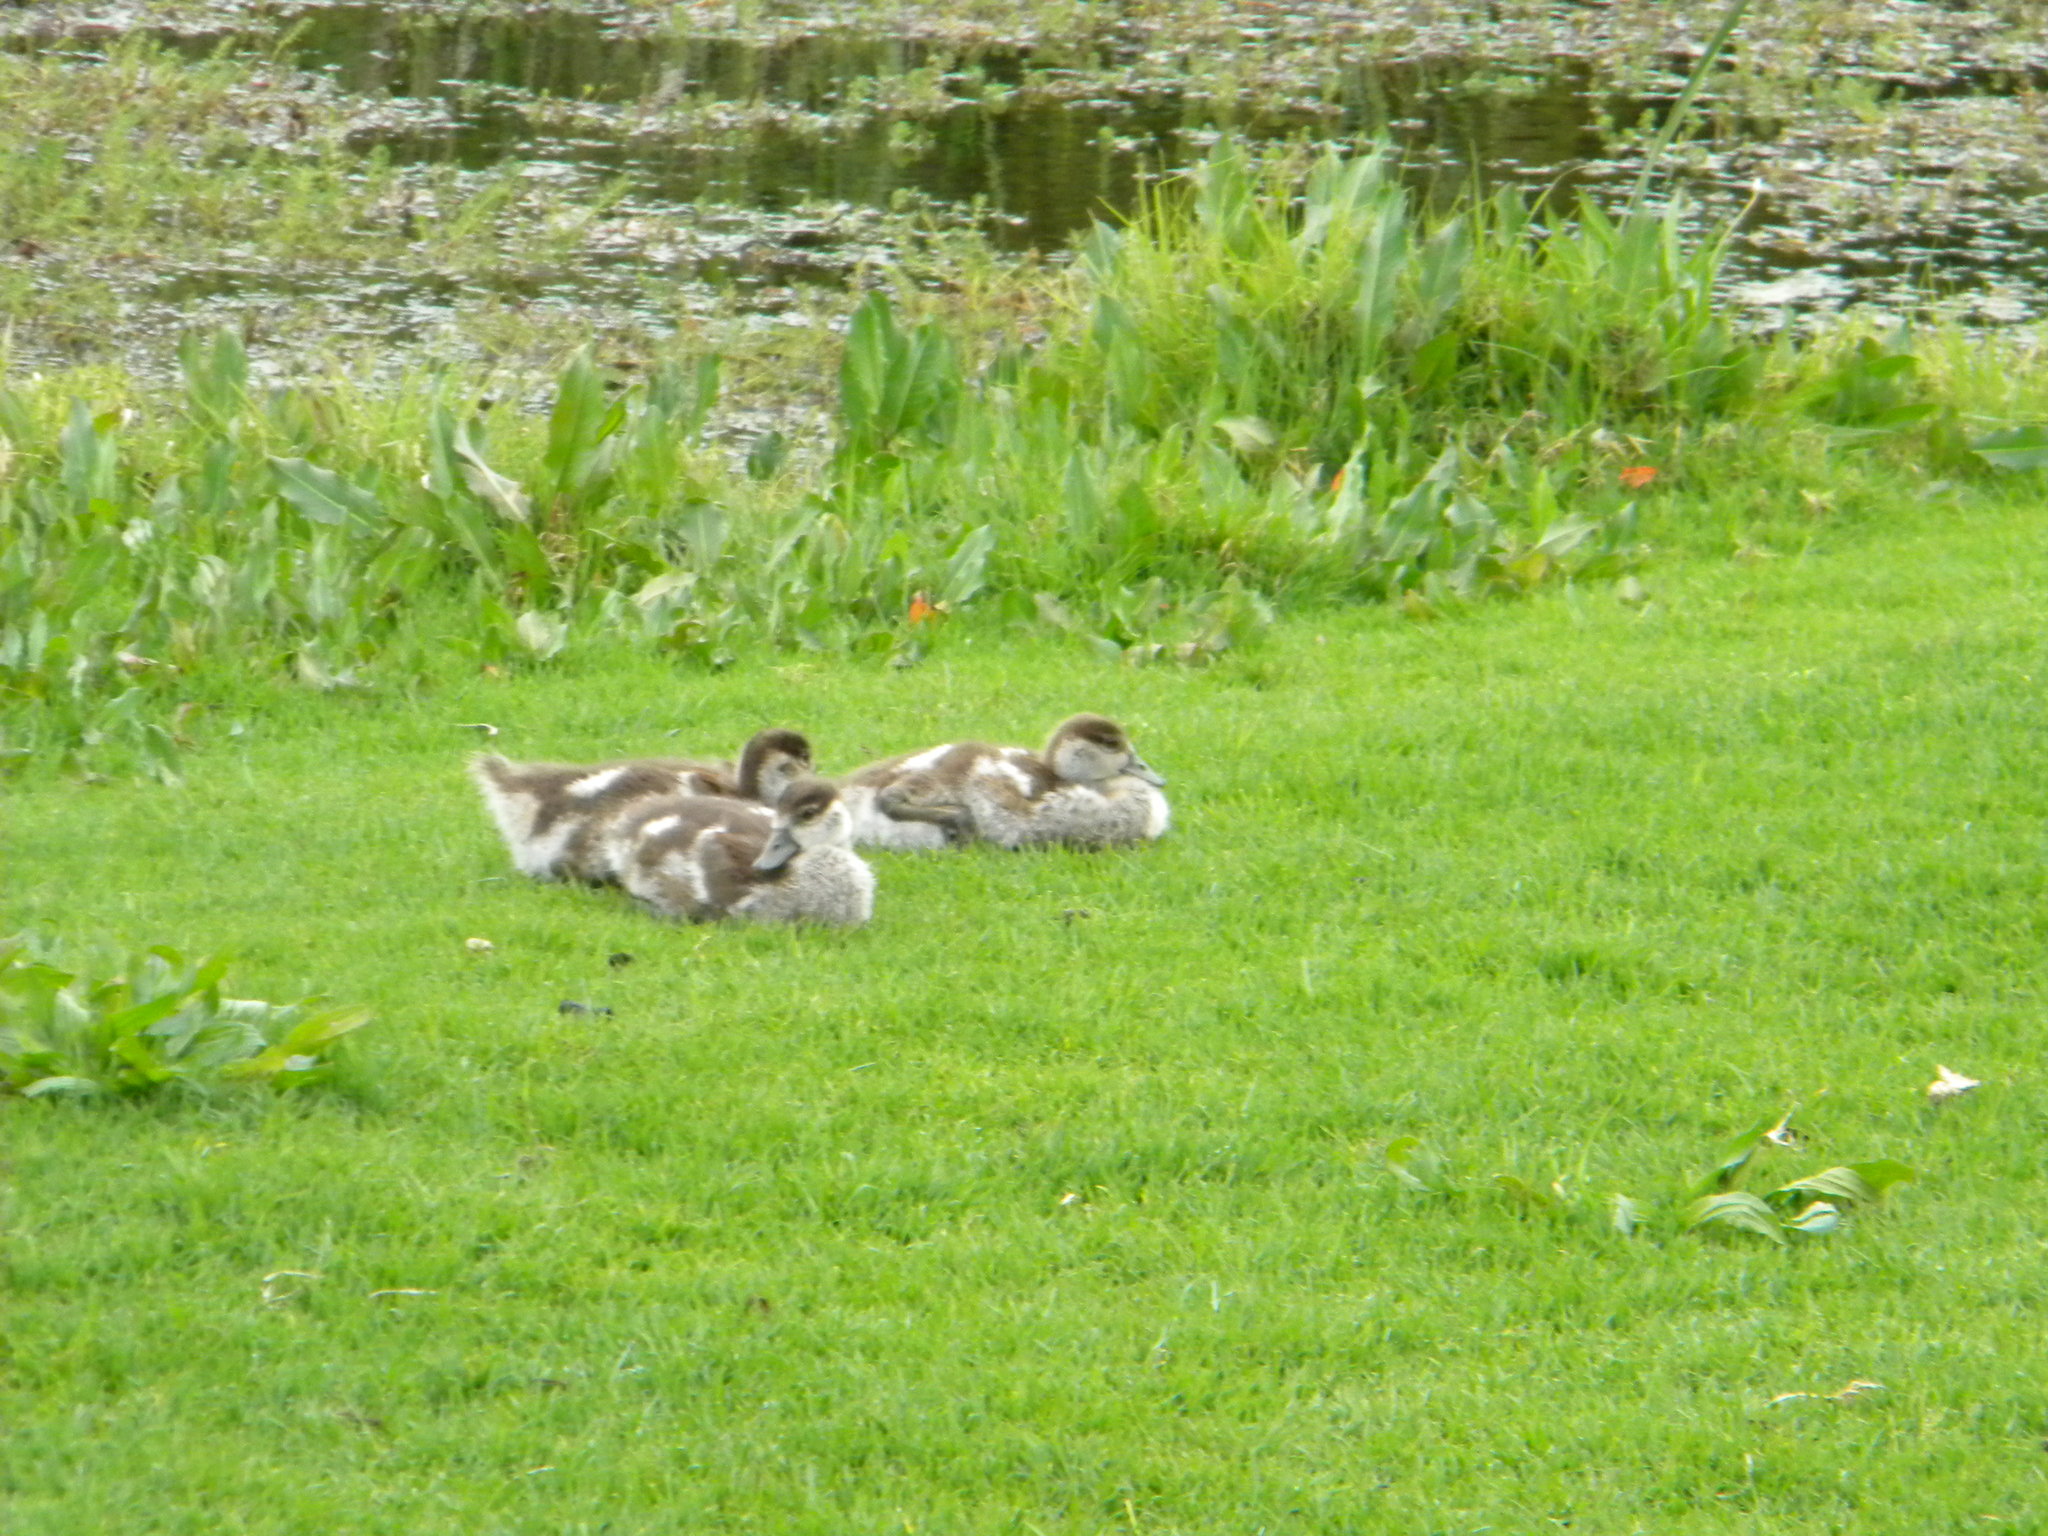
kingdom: Animalia
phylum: Chordata
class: Aves
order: Anseriformes
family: Anatidae
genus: Alopochen
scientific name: Alopochen aegyptiaca
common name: Egyptian goose
